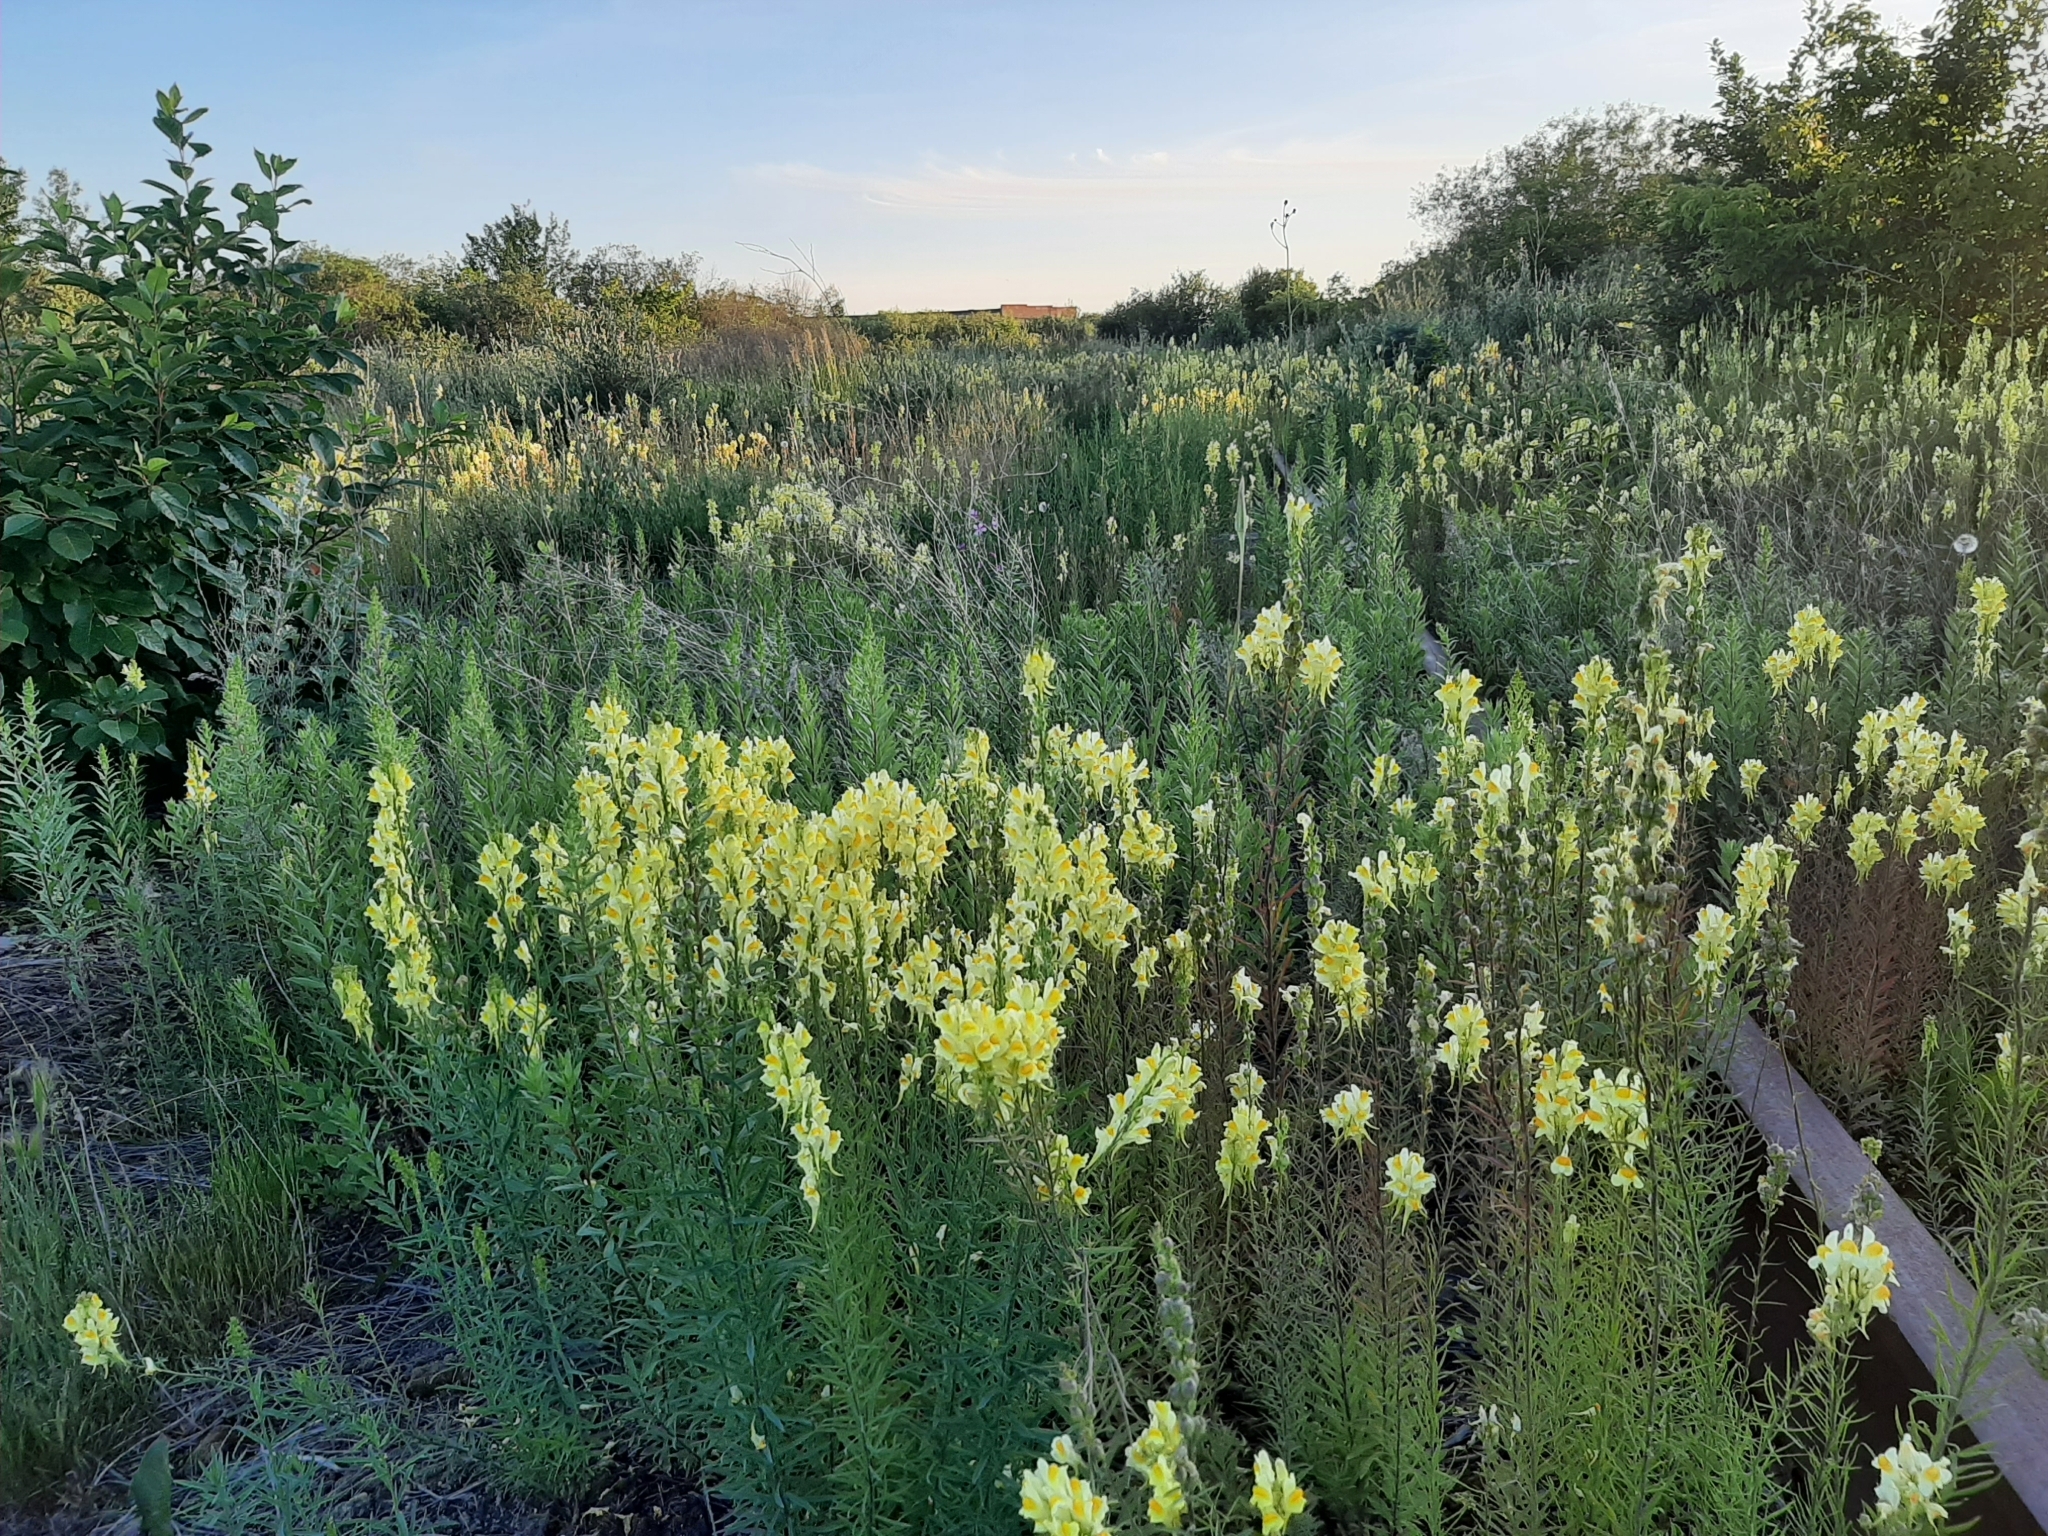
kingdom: Plantae
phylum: Tracheophyta
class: Magnoliopsida
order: Lamiales
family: Plantaginaceae
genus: Linaria
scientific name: Linaria vulgaris
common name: Butter and eggs
